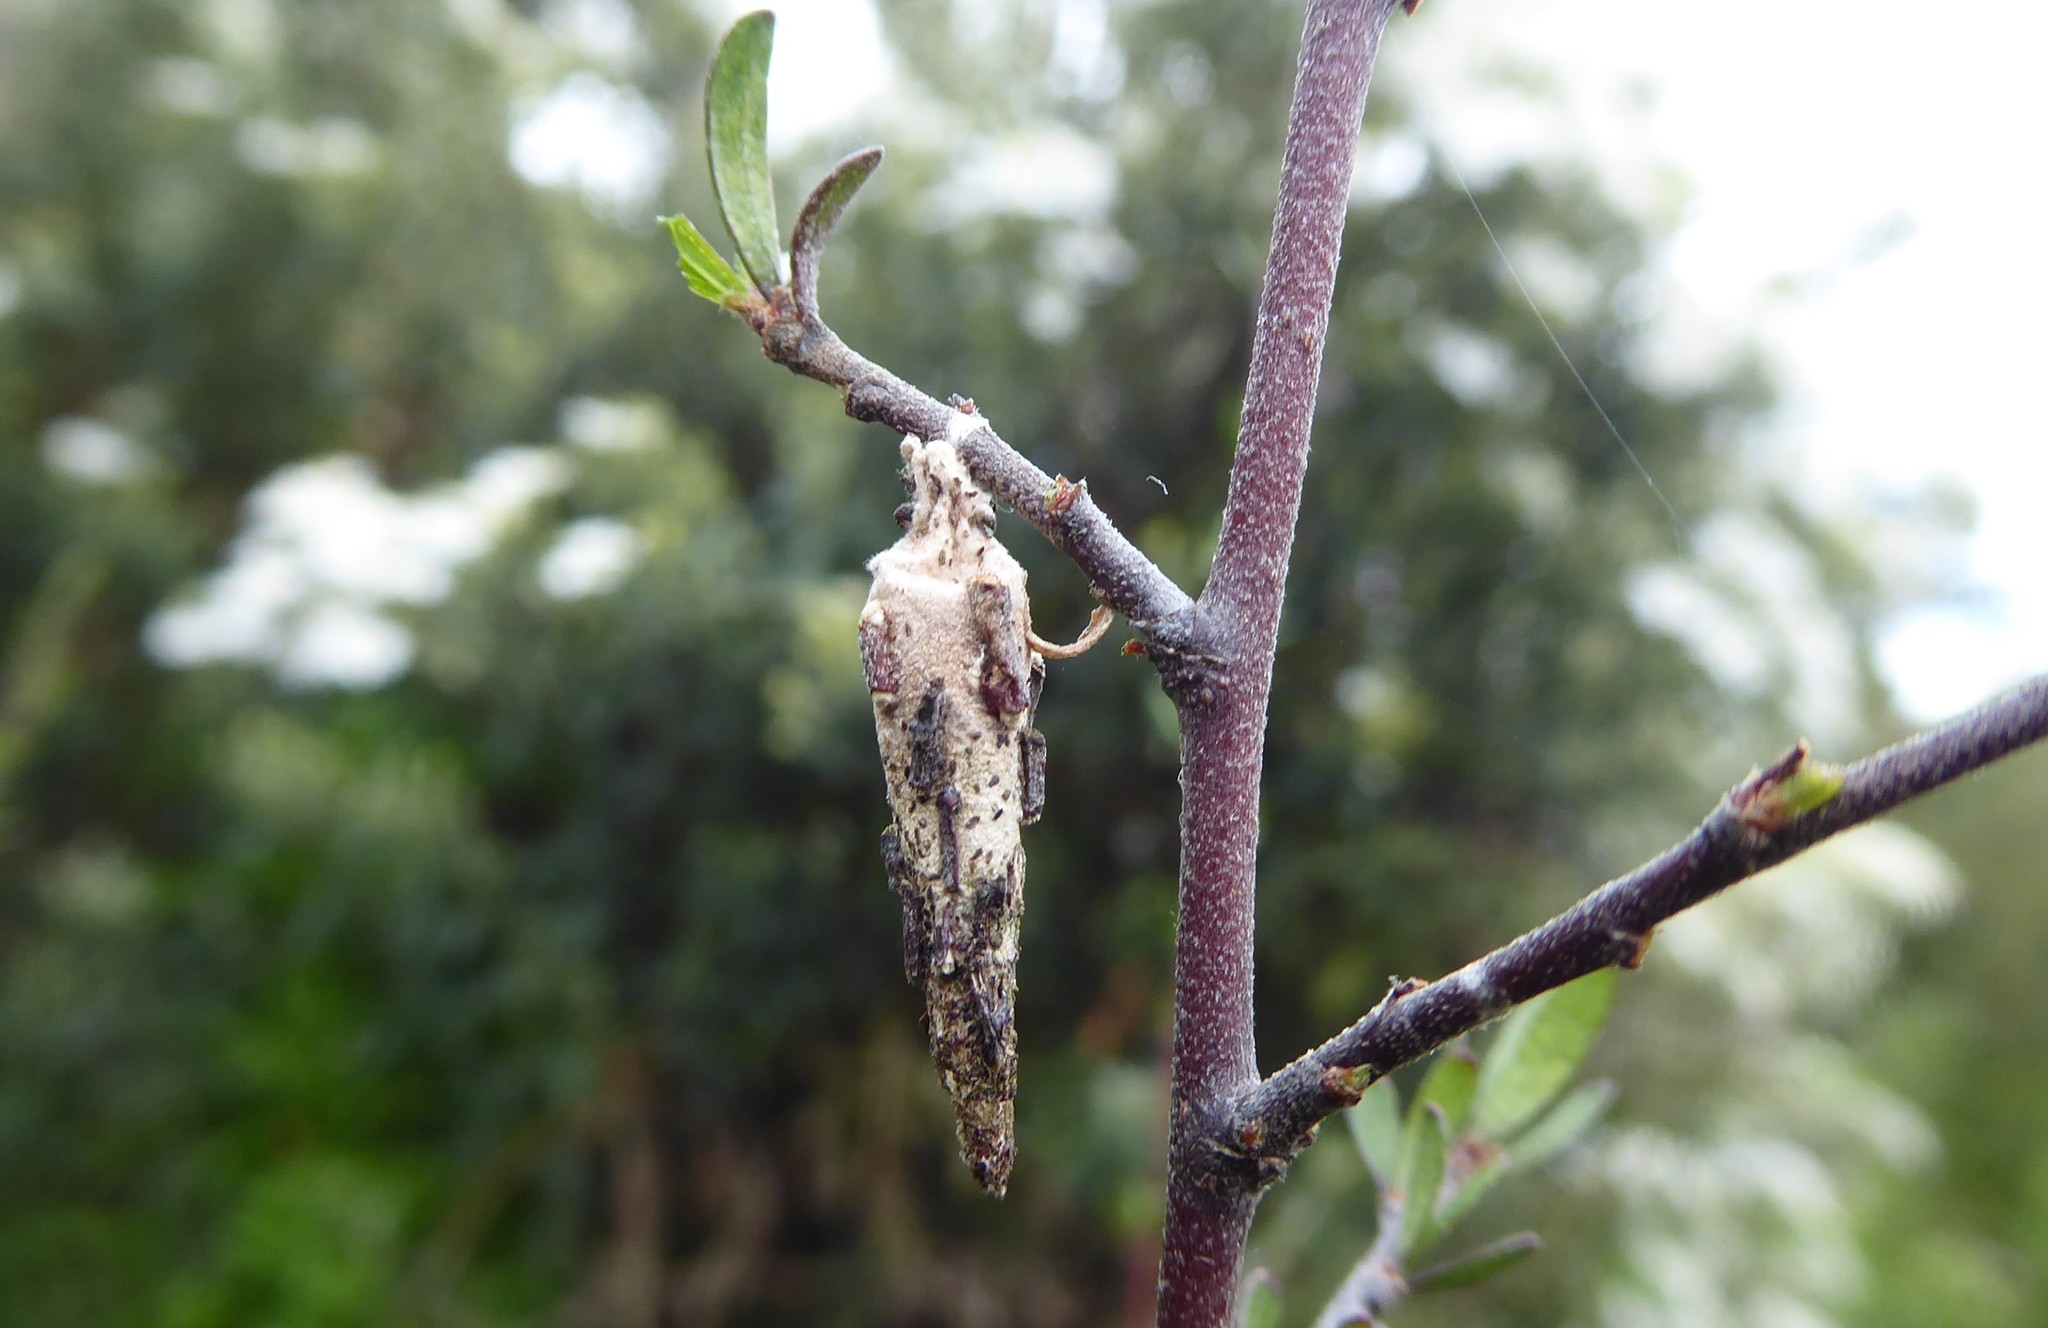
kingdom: Animalia
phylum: Arthropoda
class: Insecta
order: Lepidoptera
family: Psychidae
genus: Liothula
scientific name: Liothula omnivora
